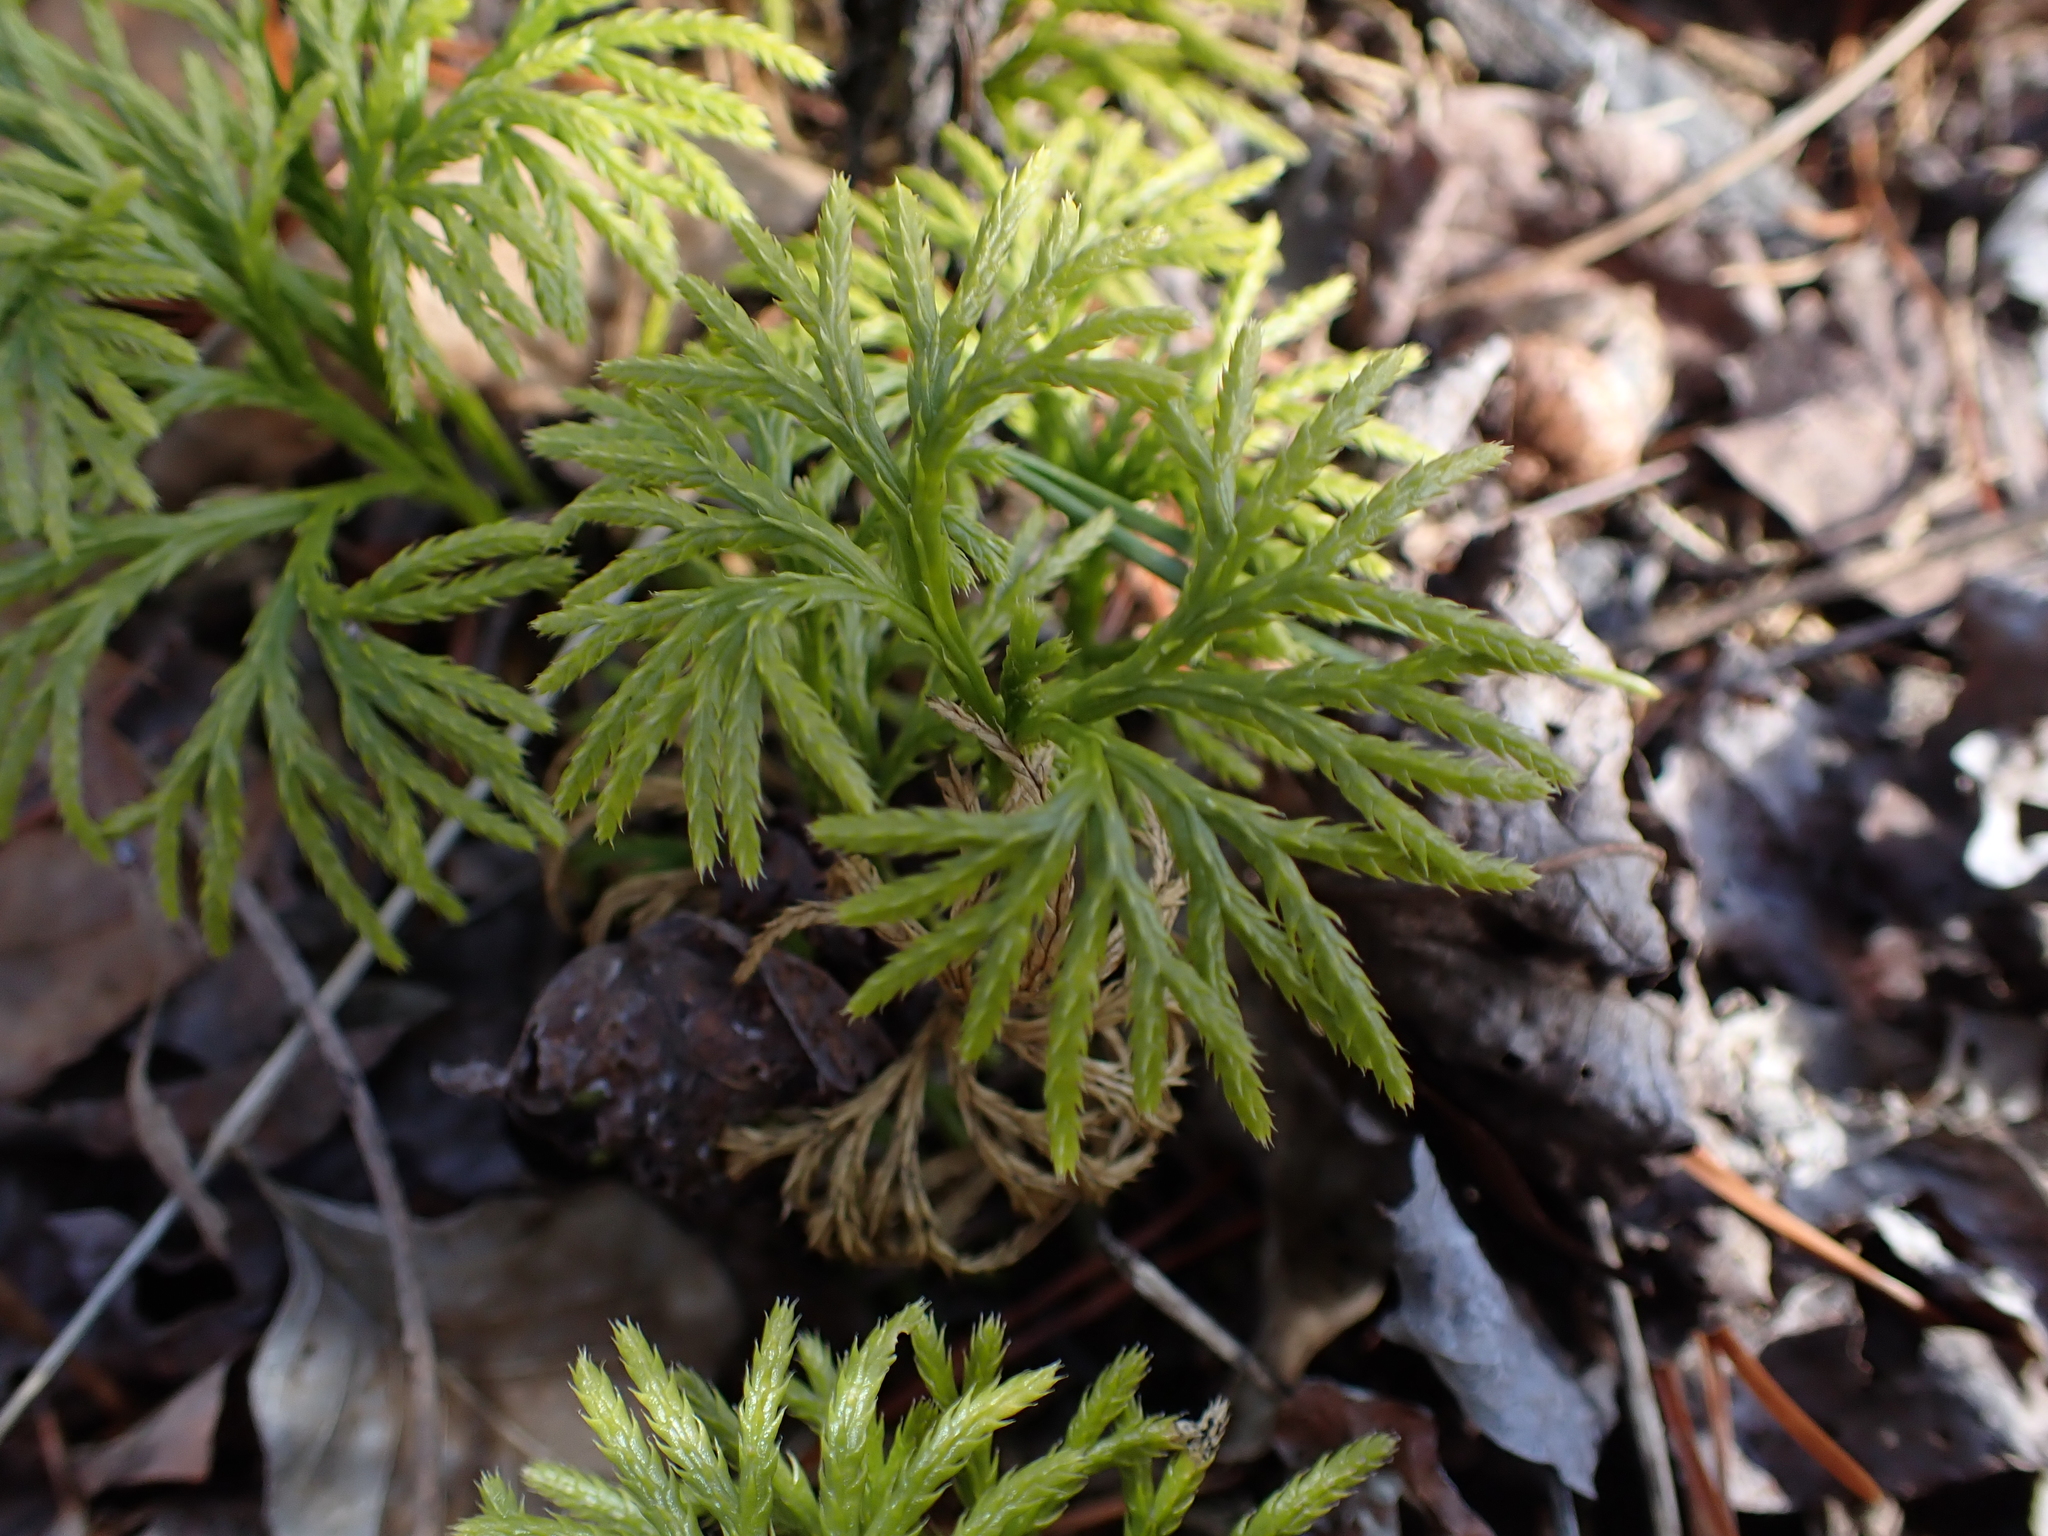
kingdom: Plantae
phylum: Tracheophyta
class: Lycopodiopsida
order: Lycopodiales
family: Lycopodiaceae
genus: Diphasiastrum
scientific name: Diphasiastrum digitatum
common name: Southern running-pine
